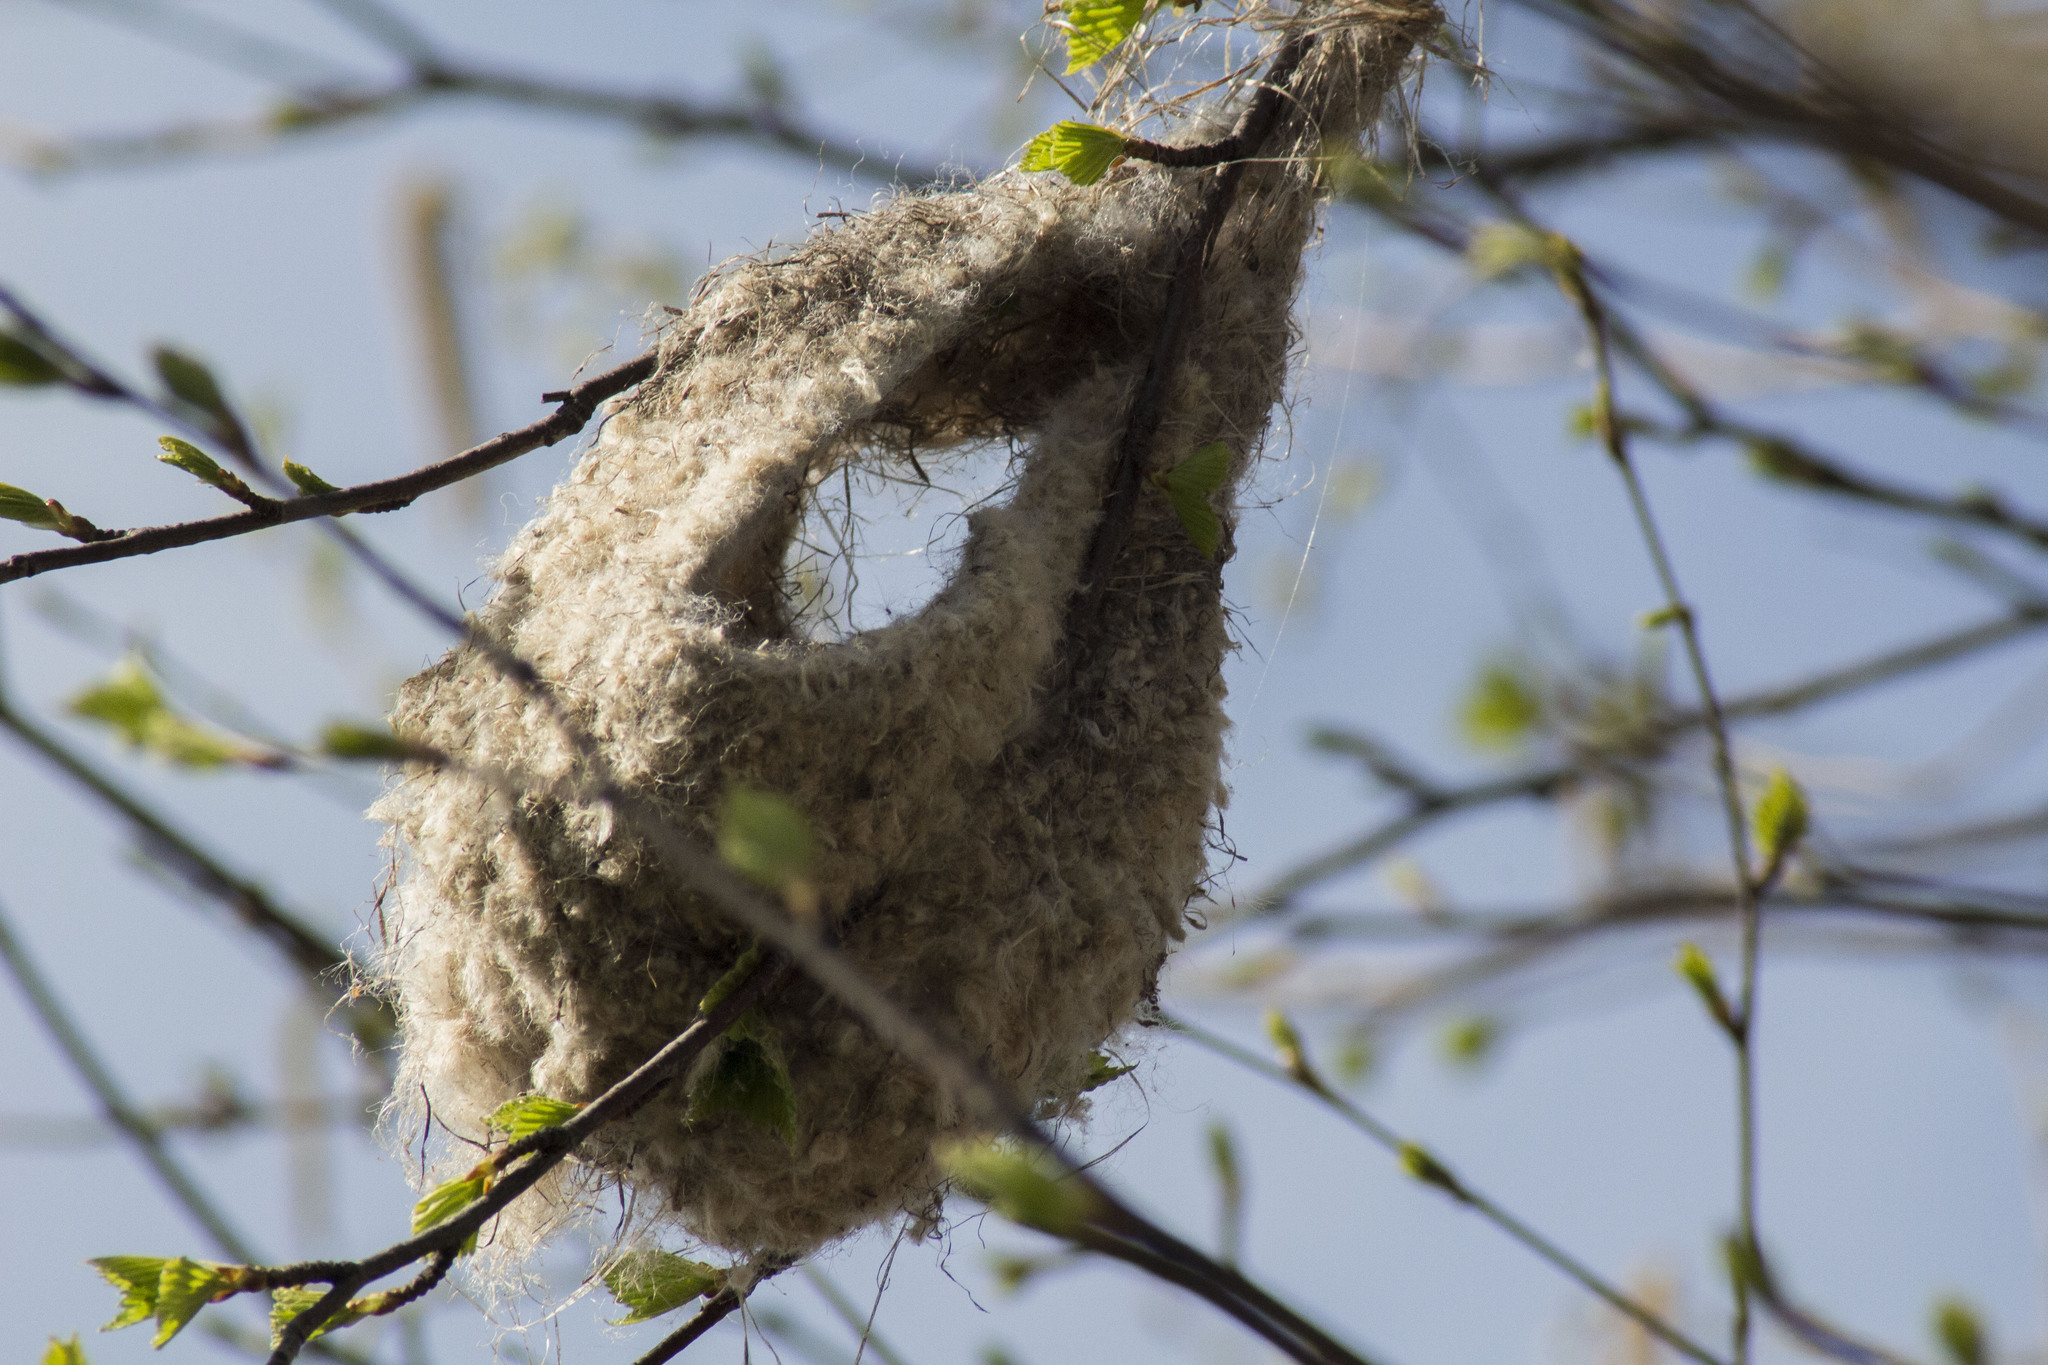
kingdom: Animalia
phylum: Chordata
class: Aves
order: Passeriformes
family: Remizidae
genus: Remiz
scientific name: Remiz pendulinus
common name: Eurasian penduline tit
